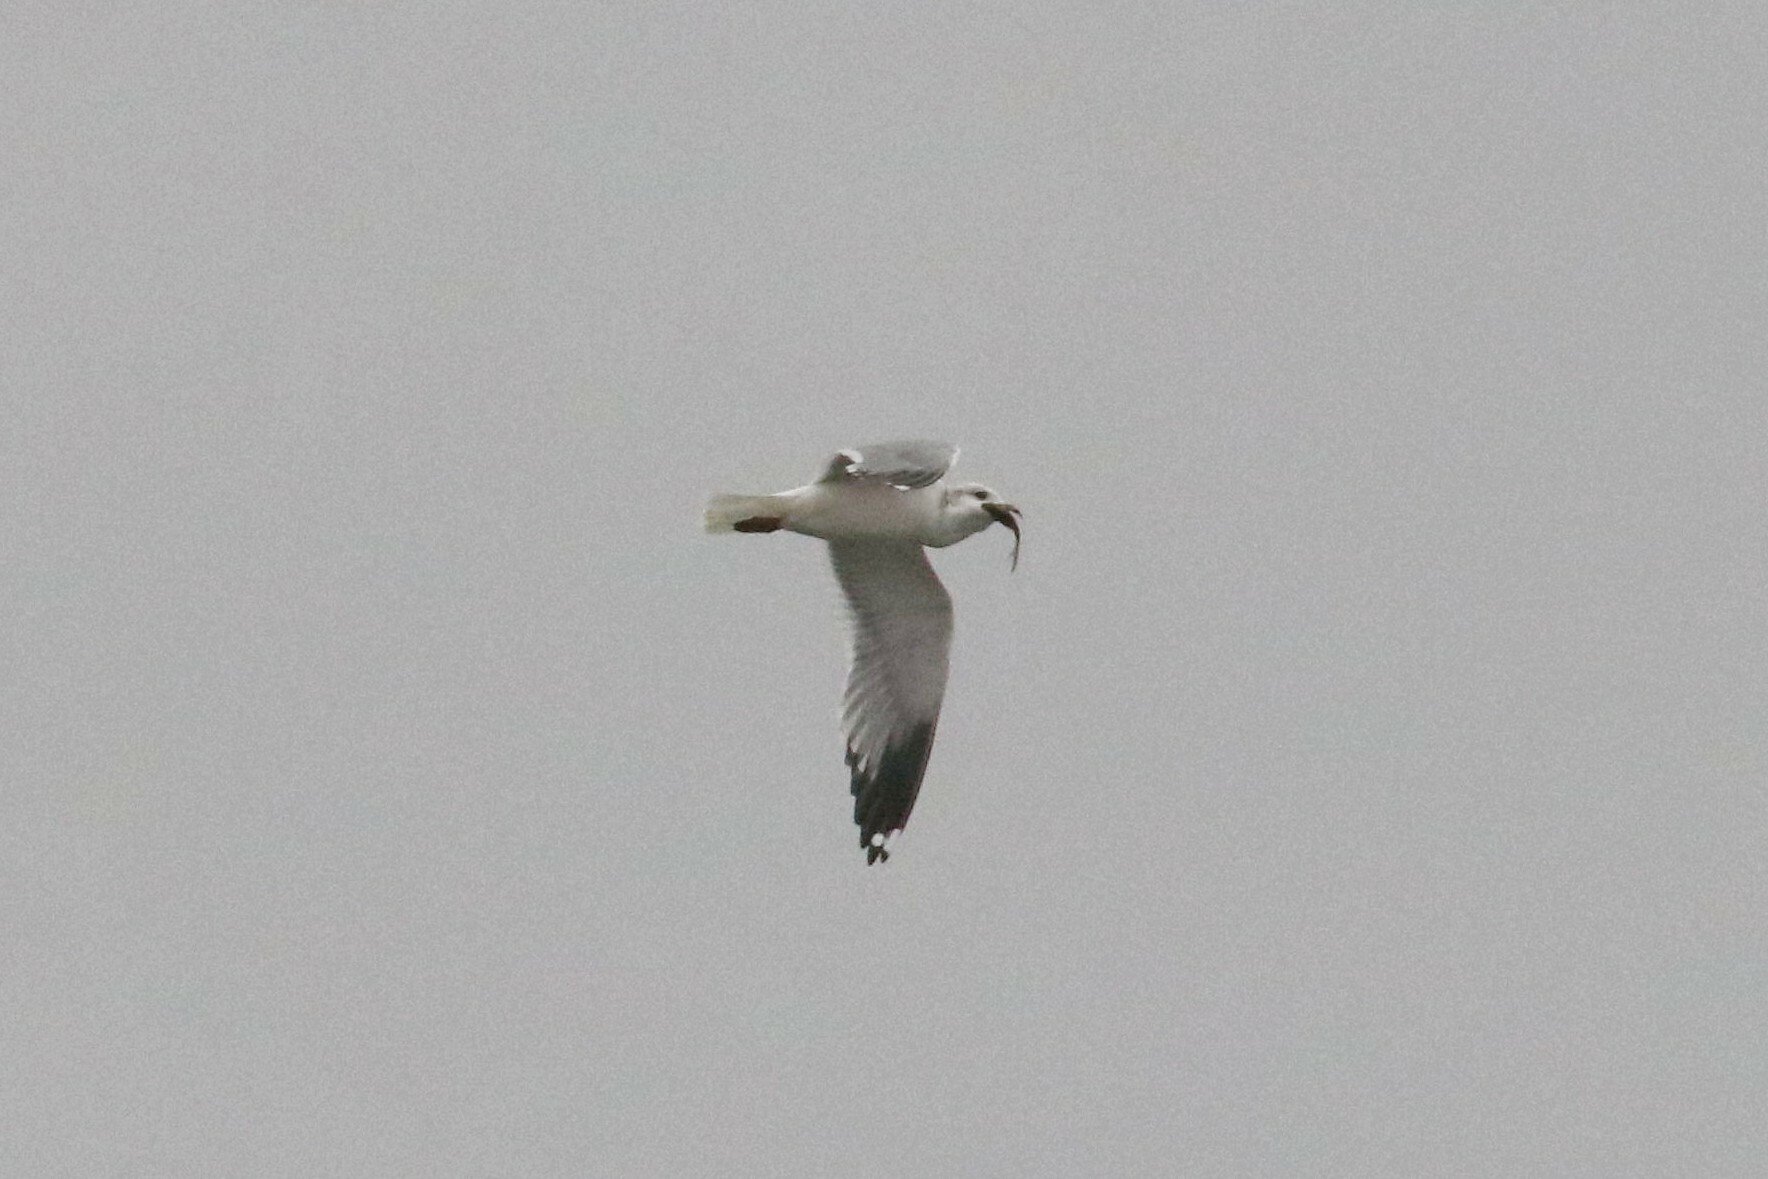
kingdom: Animalia
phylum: Chordata
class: Aves
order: Charadriiformes
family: Laridae
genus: Larus
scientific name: Larus canus
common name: Mew gull
